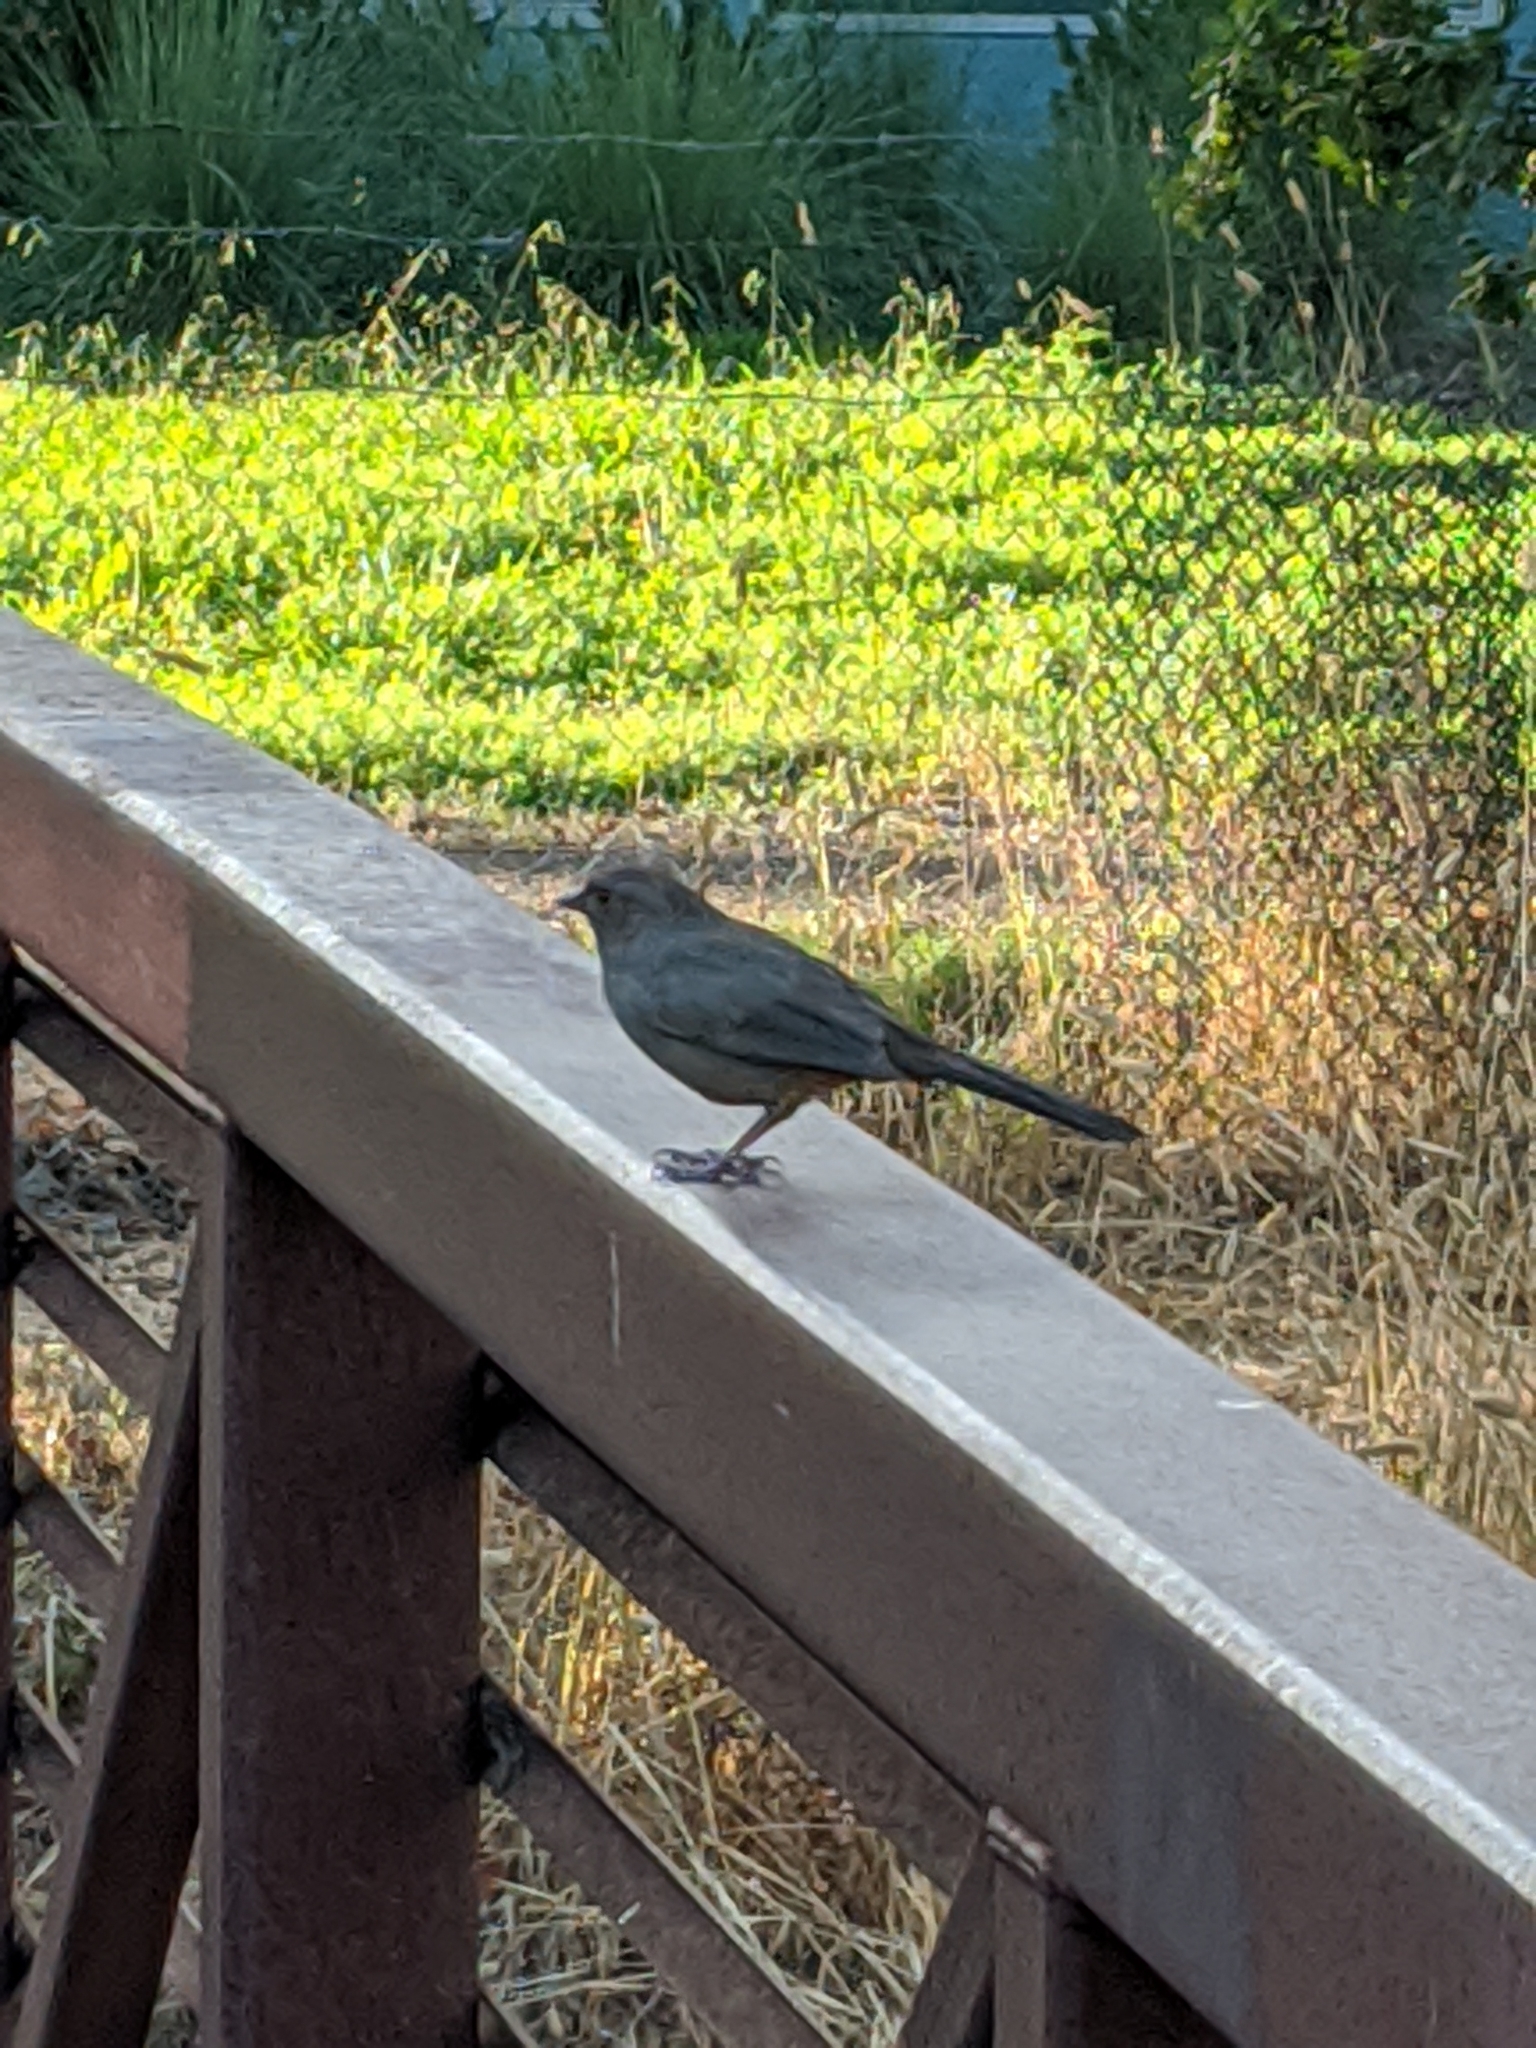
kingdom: Animalia
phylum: Chordata
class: Aves
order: Passeriformes
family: Passerellidae
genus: Melozone
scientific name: Melozone crissalis
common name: California towhee
